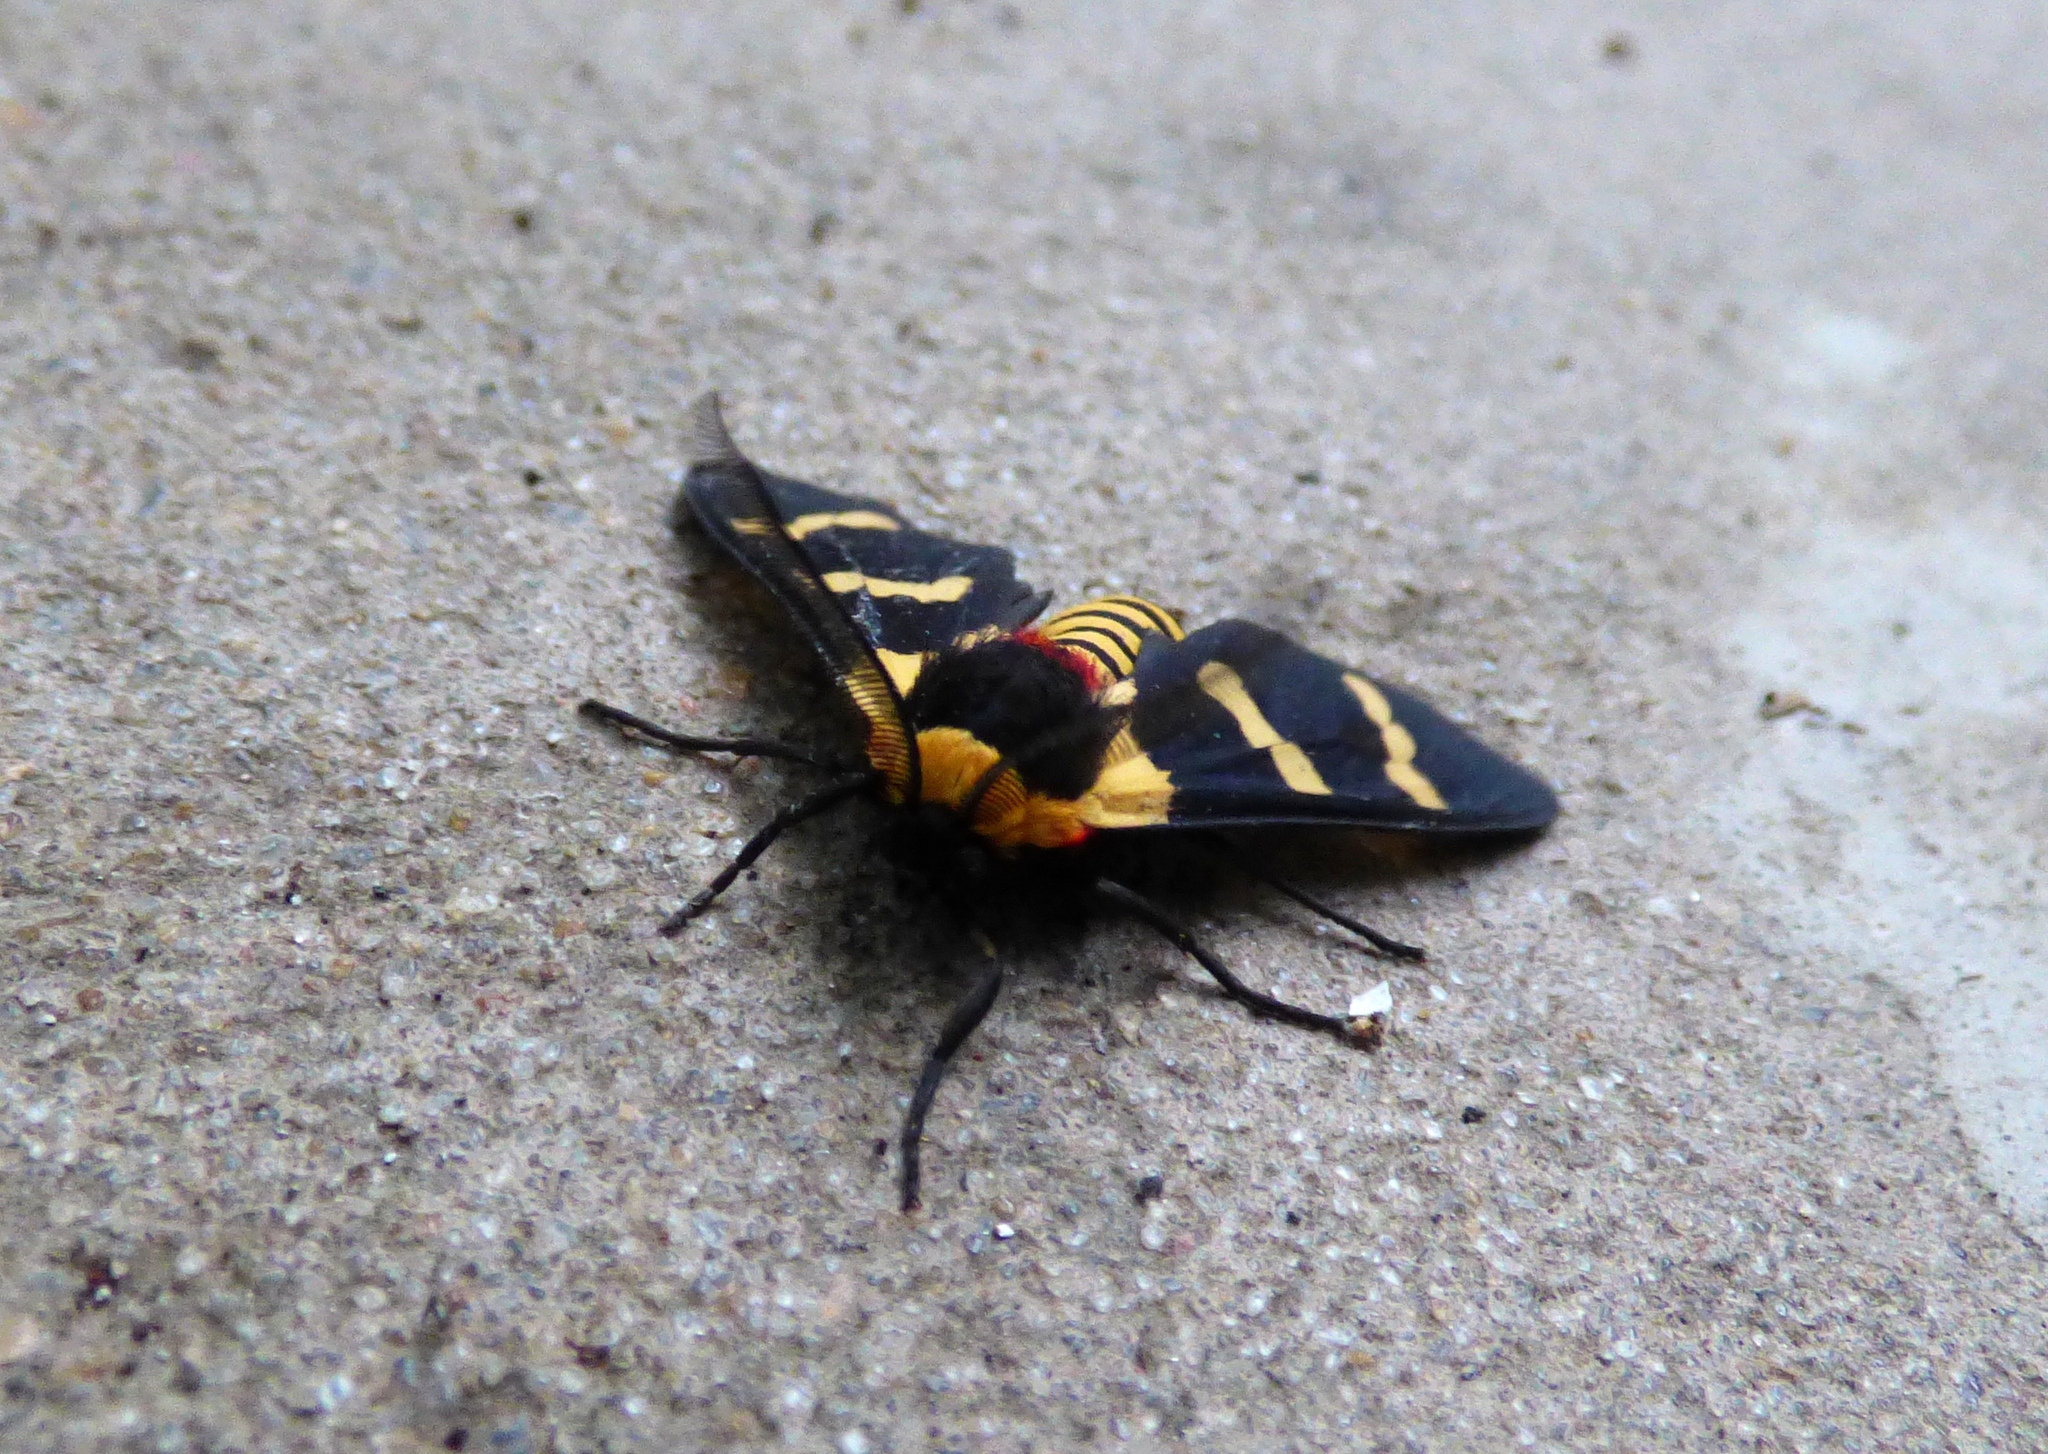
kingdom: Animalia
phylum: Arthropoda
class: Insecta
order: Lepidoptera
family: Erebidae
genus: Eurata
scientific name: Eurata hilaris
